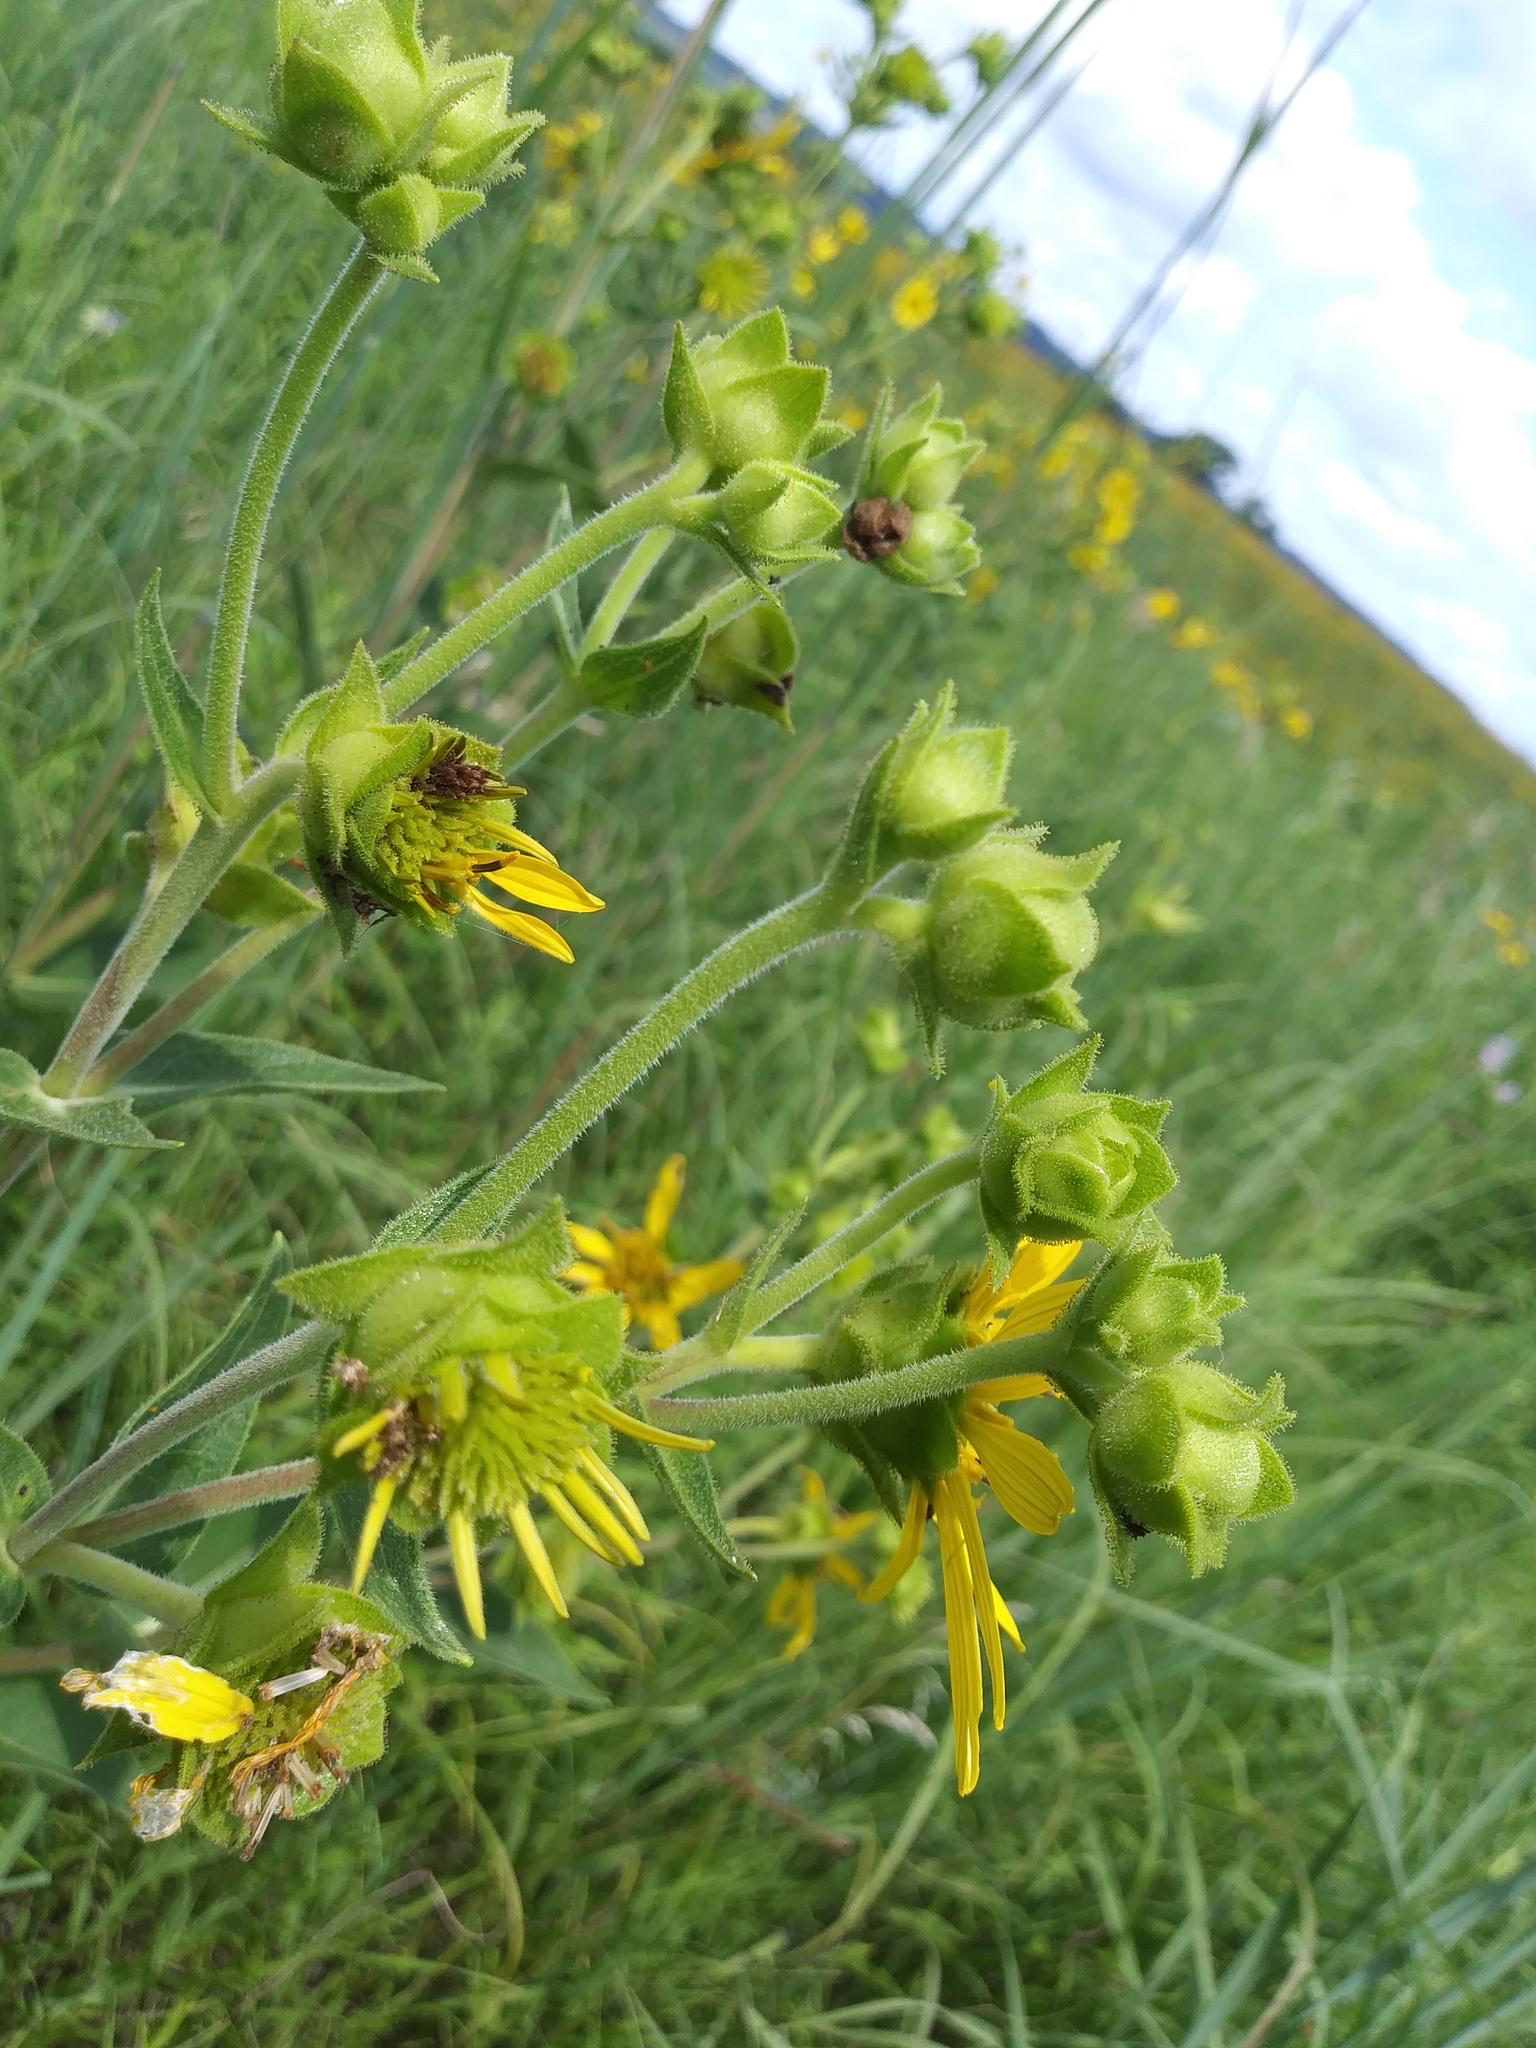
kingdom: Plantae
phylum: Tracheophyta
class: Magnoliopsida
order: Asterales
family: Asteraceae
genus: Silphium
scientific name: Silphium integrifolium
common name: Whole-leaf rosinweed
